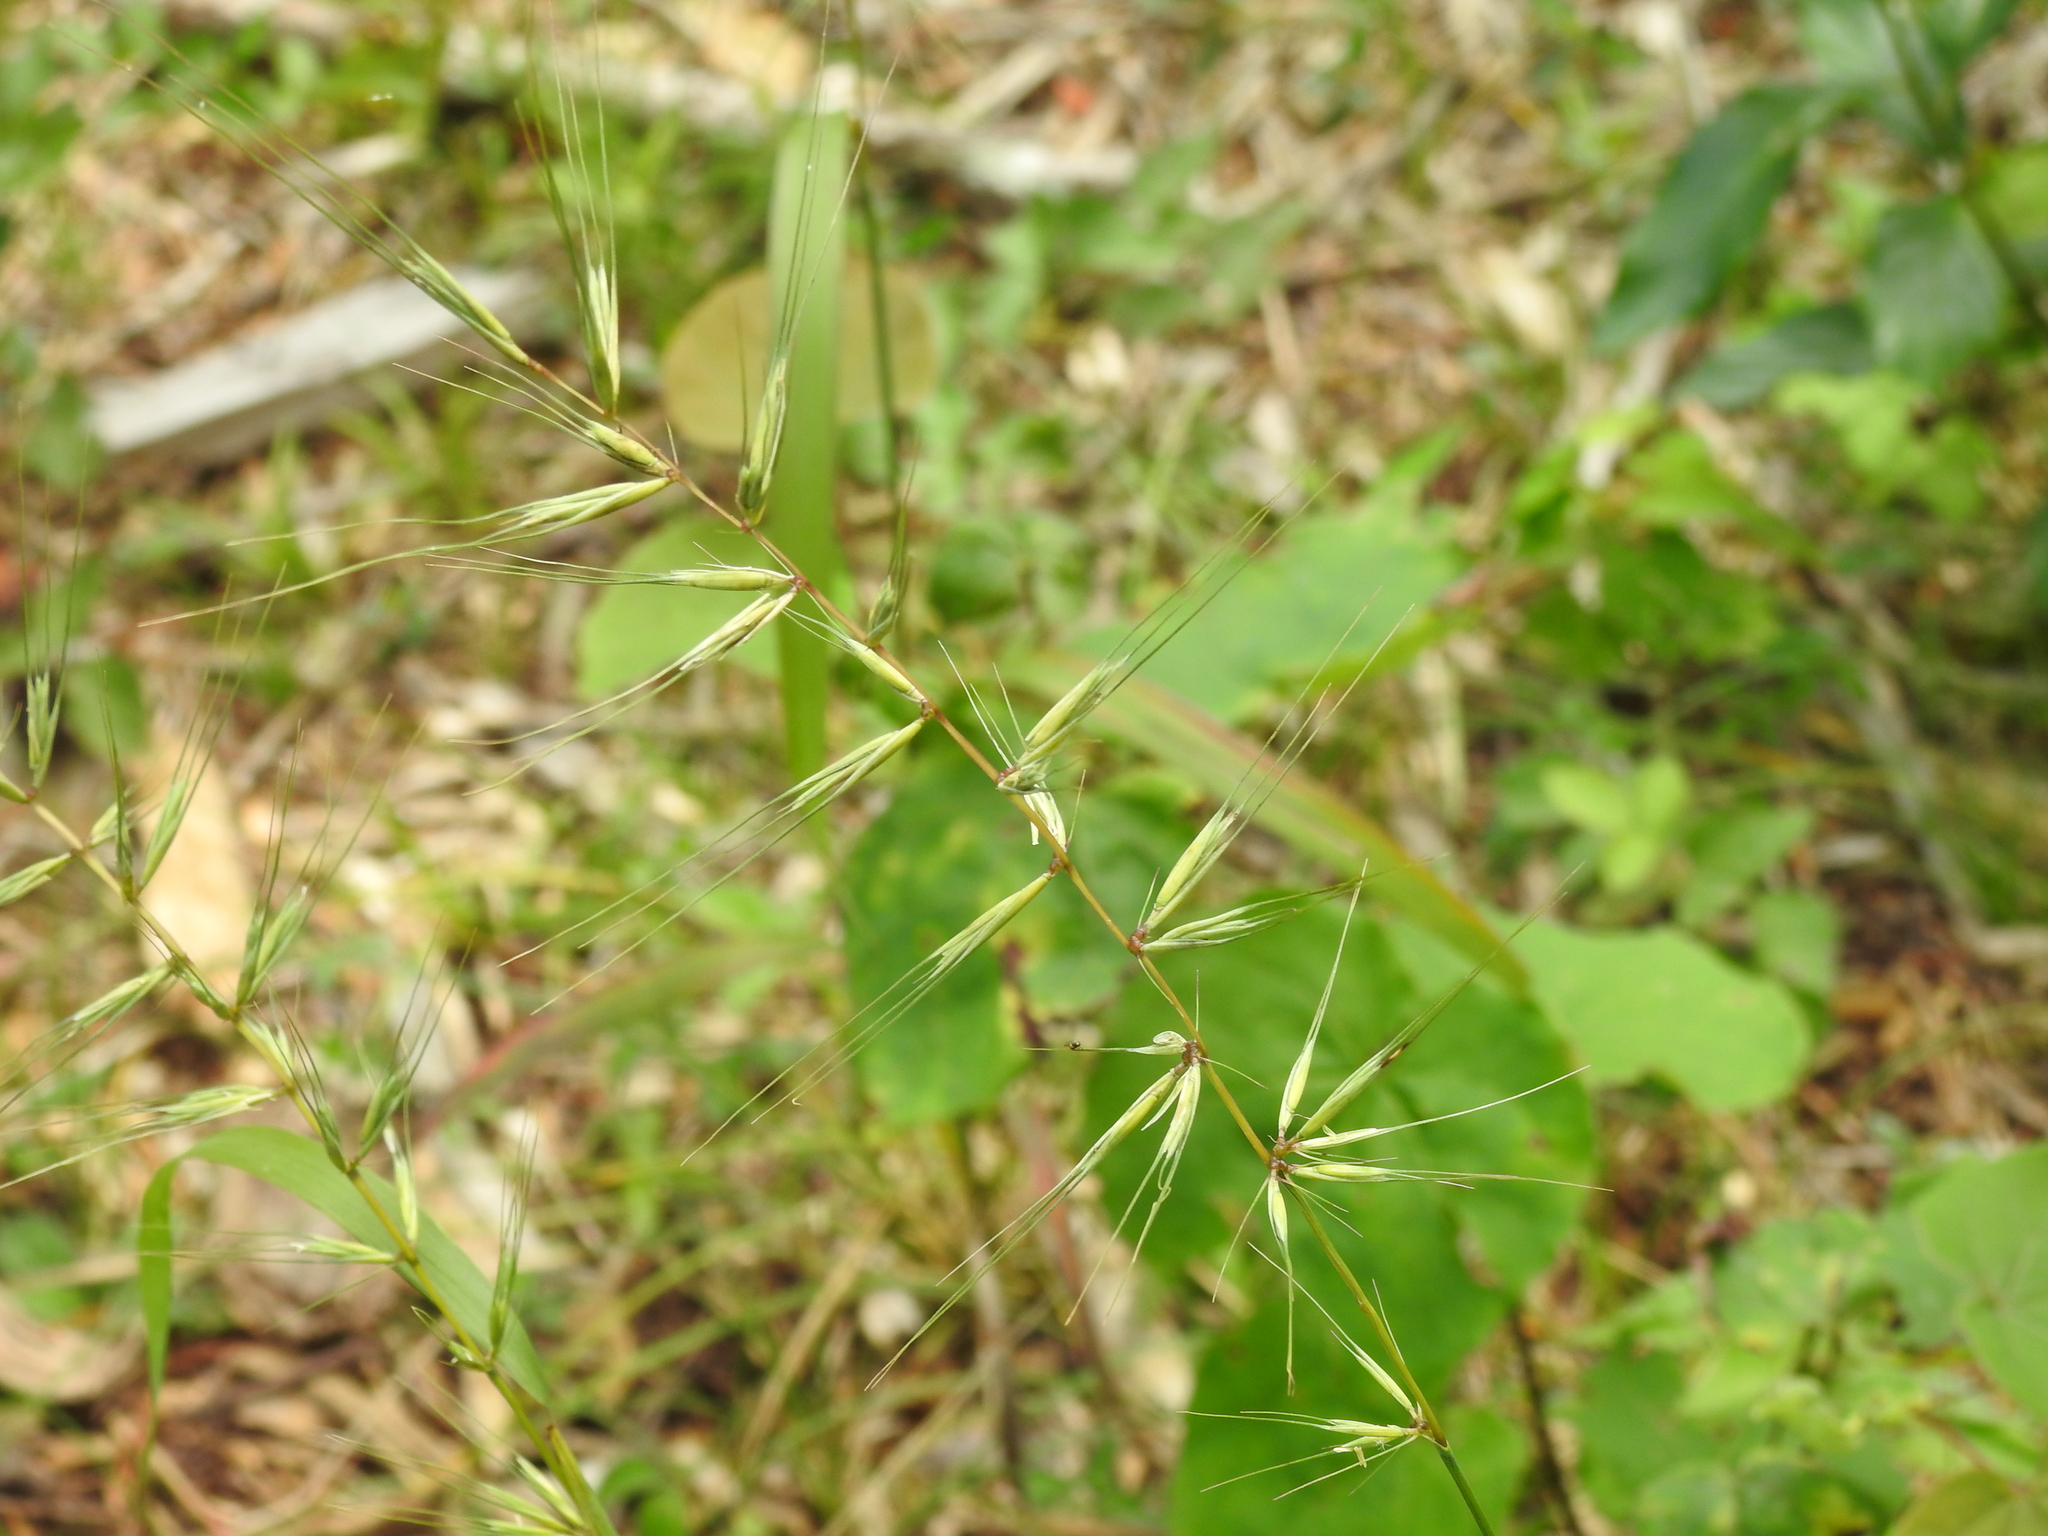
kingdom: Plantae
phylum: Tracheophyta
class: Liliopsida
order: Poales
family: Poaceae
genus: Elymus
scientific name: Elymus hystrix
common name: Bottlebrush grass
